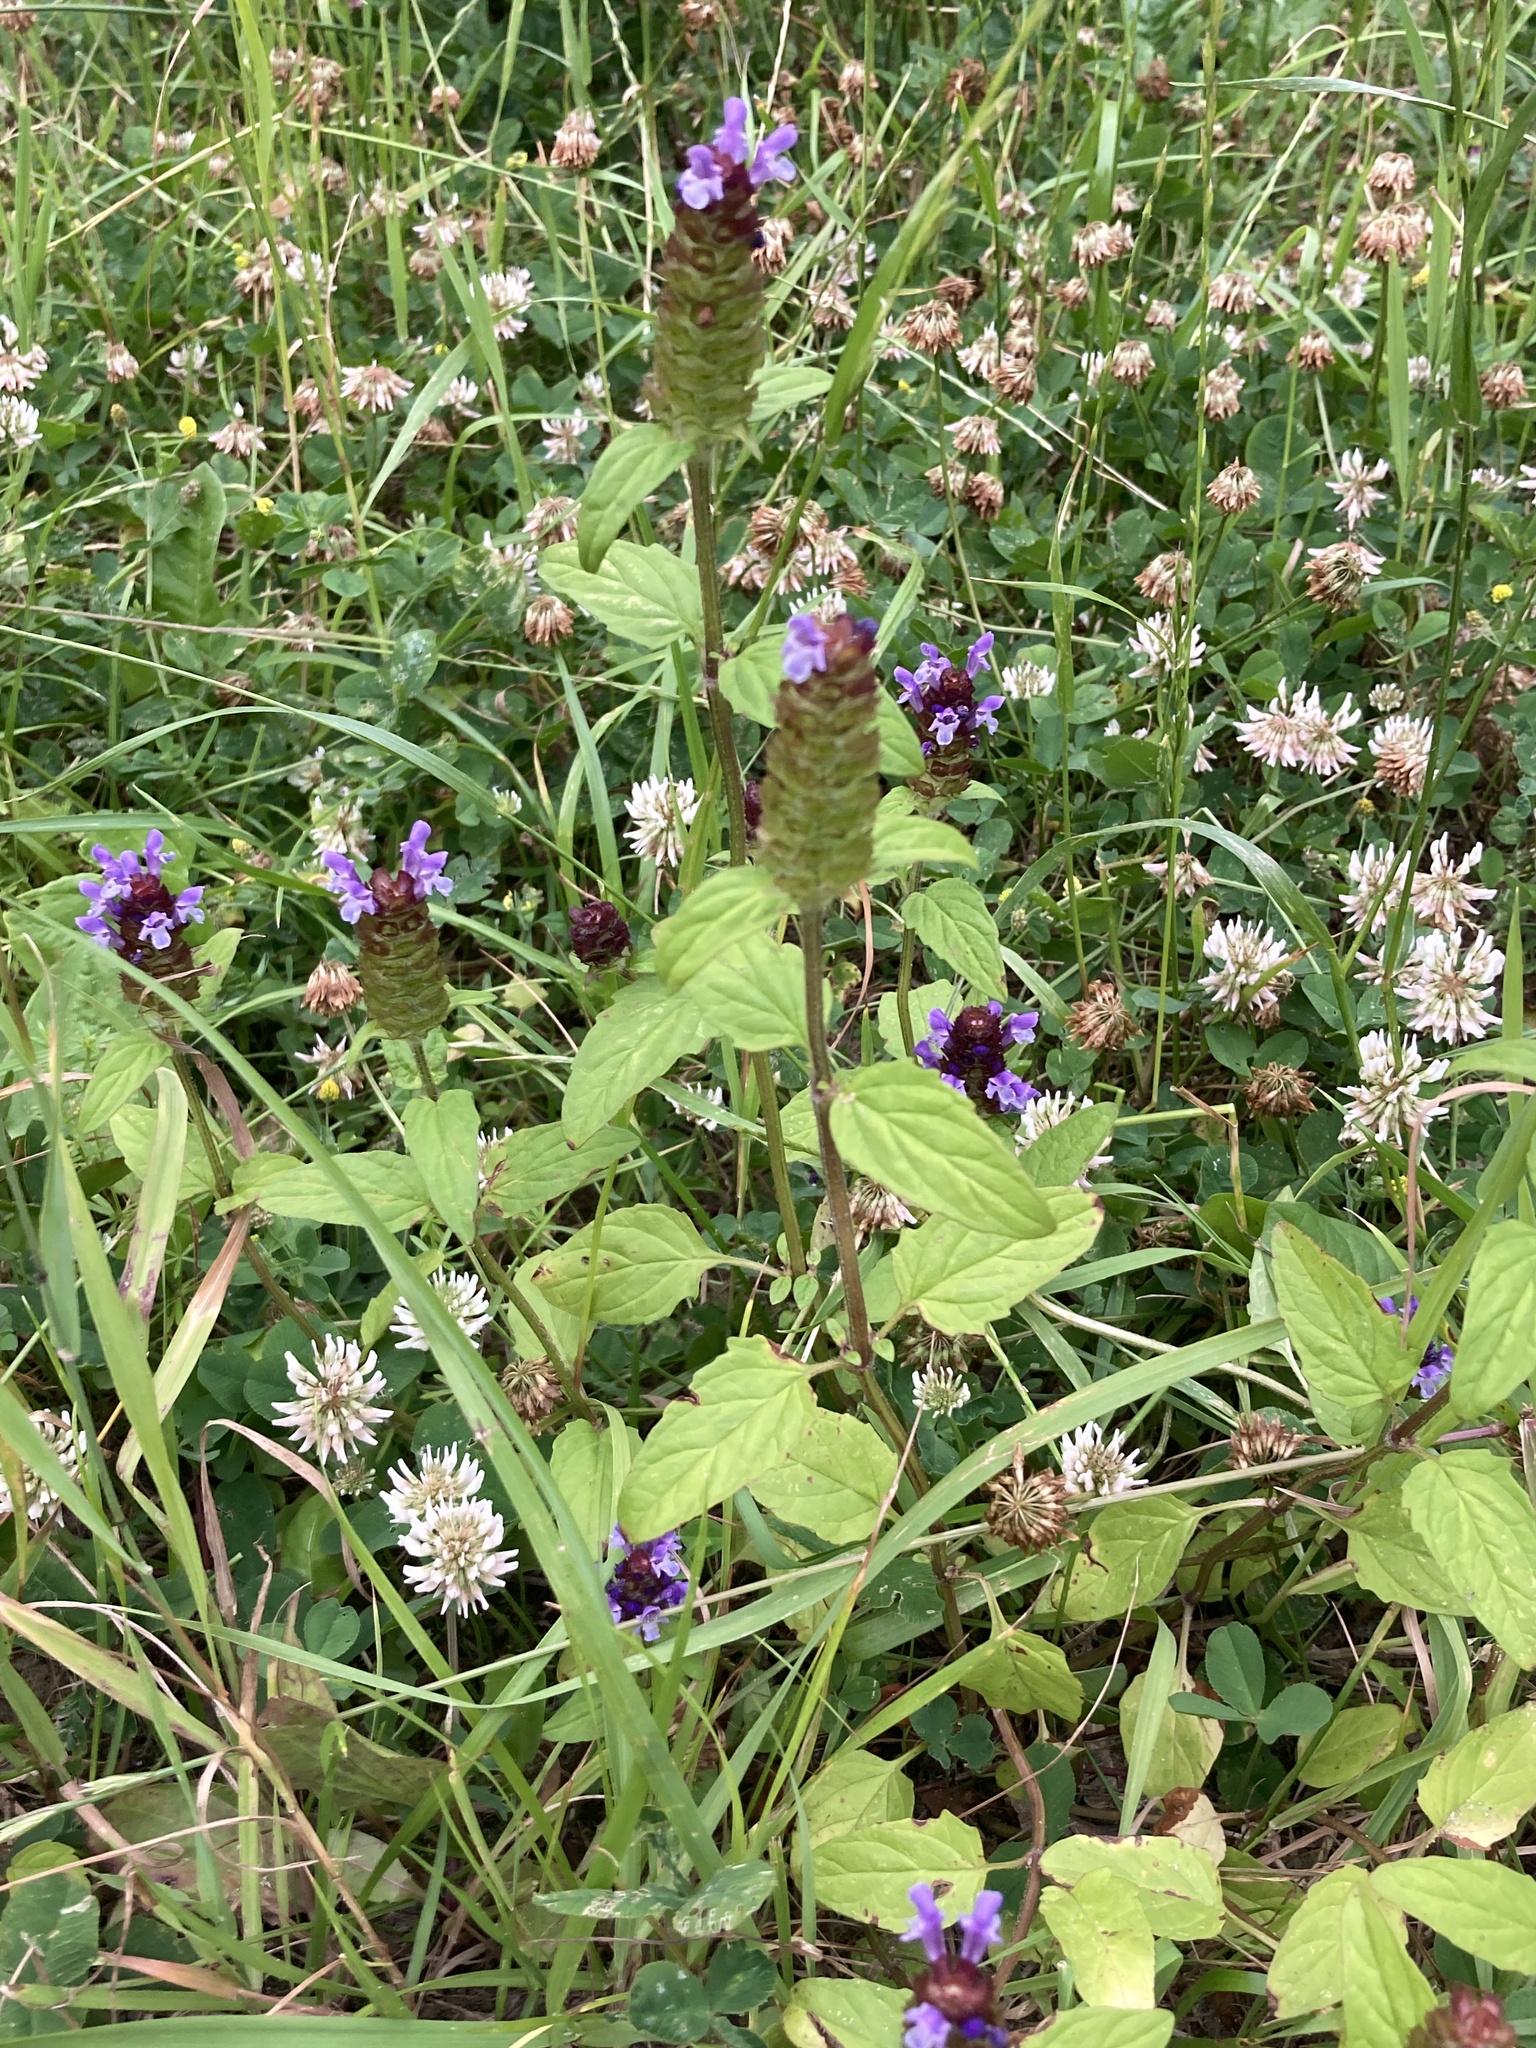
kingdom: Plantae
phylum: Tracheophyta
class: Magnoliopsida
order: Lamiales
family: Lamiaceae
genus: Prunella
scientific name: Prunella vulgaris
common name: Heal-all
